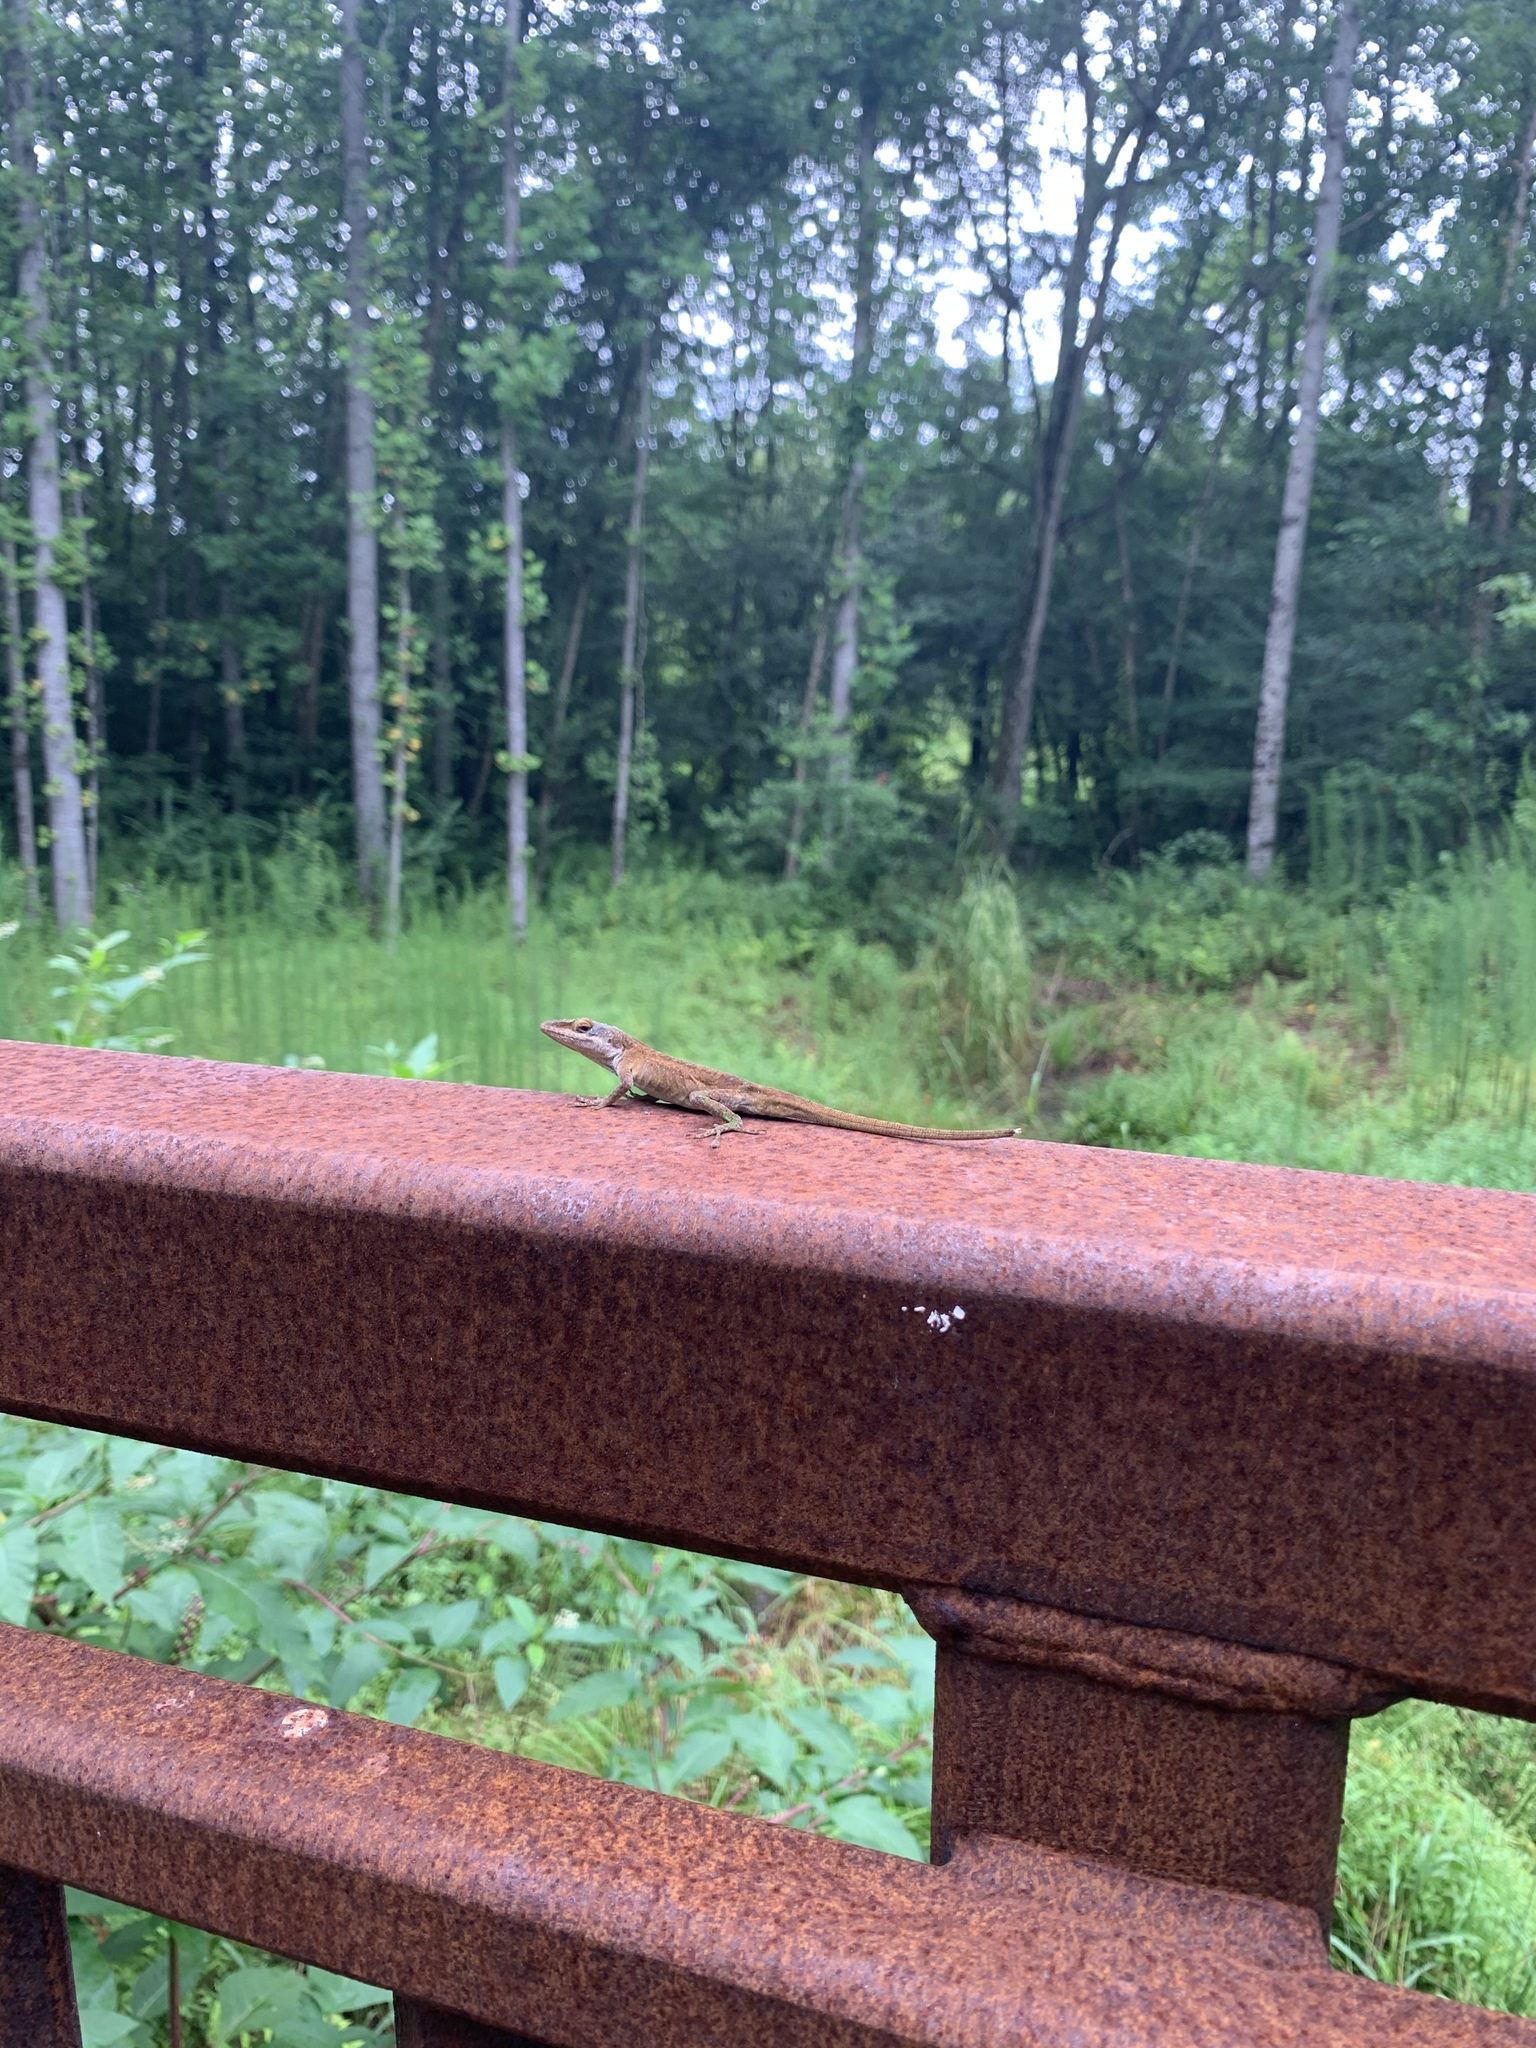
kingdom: Animalia
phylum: Chordata
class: Squamata
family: Dactyloidae
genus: Anolis
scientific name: Anolis carolinensis
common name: Green anole
